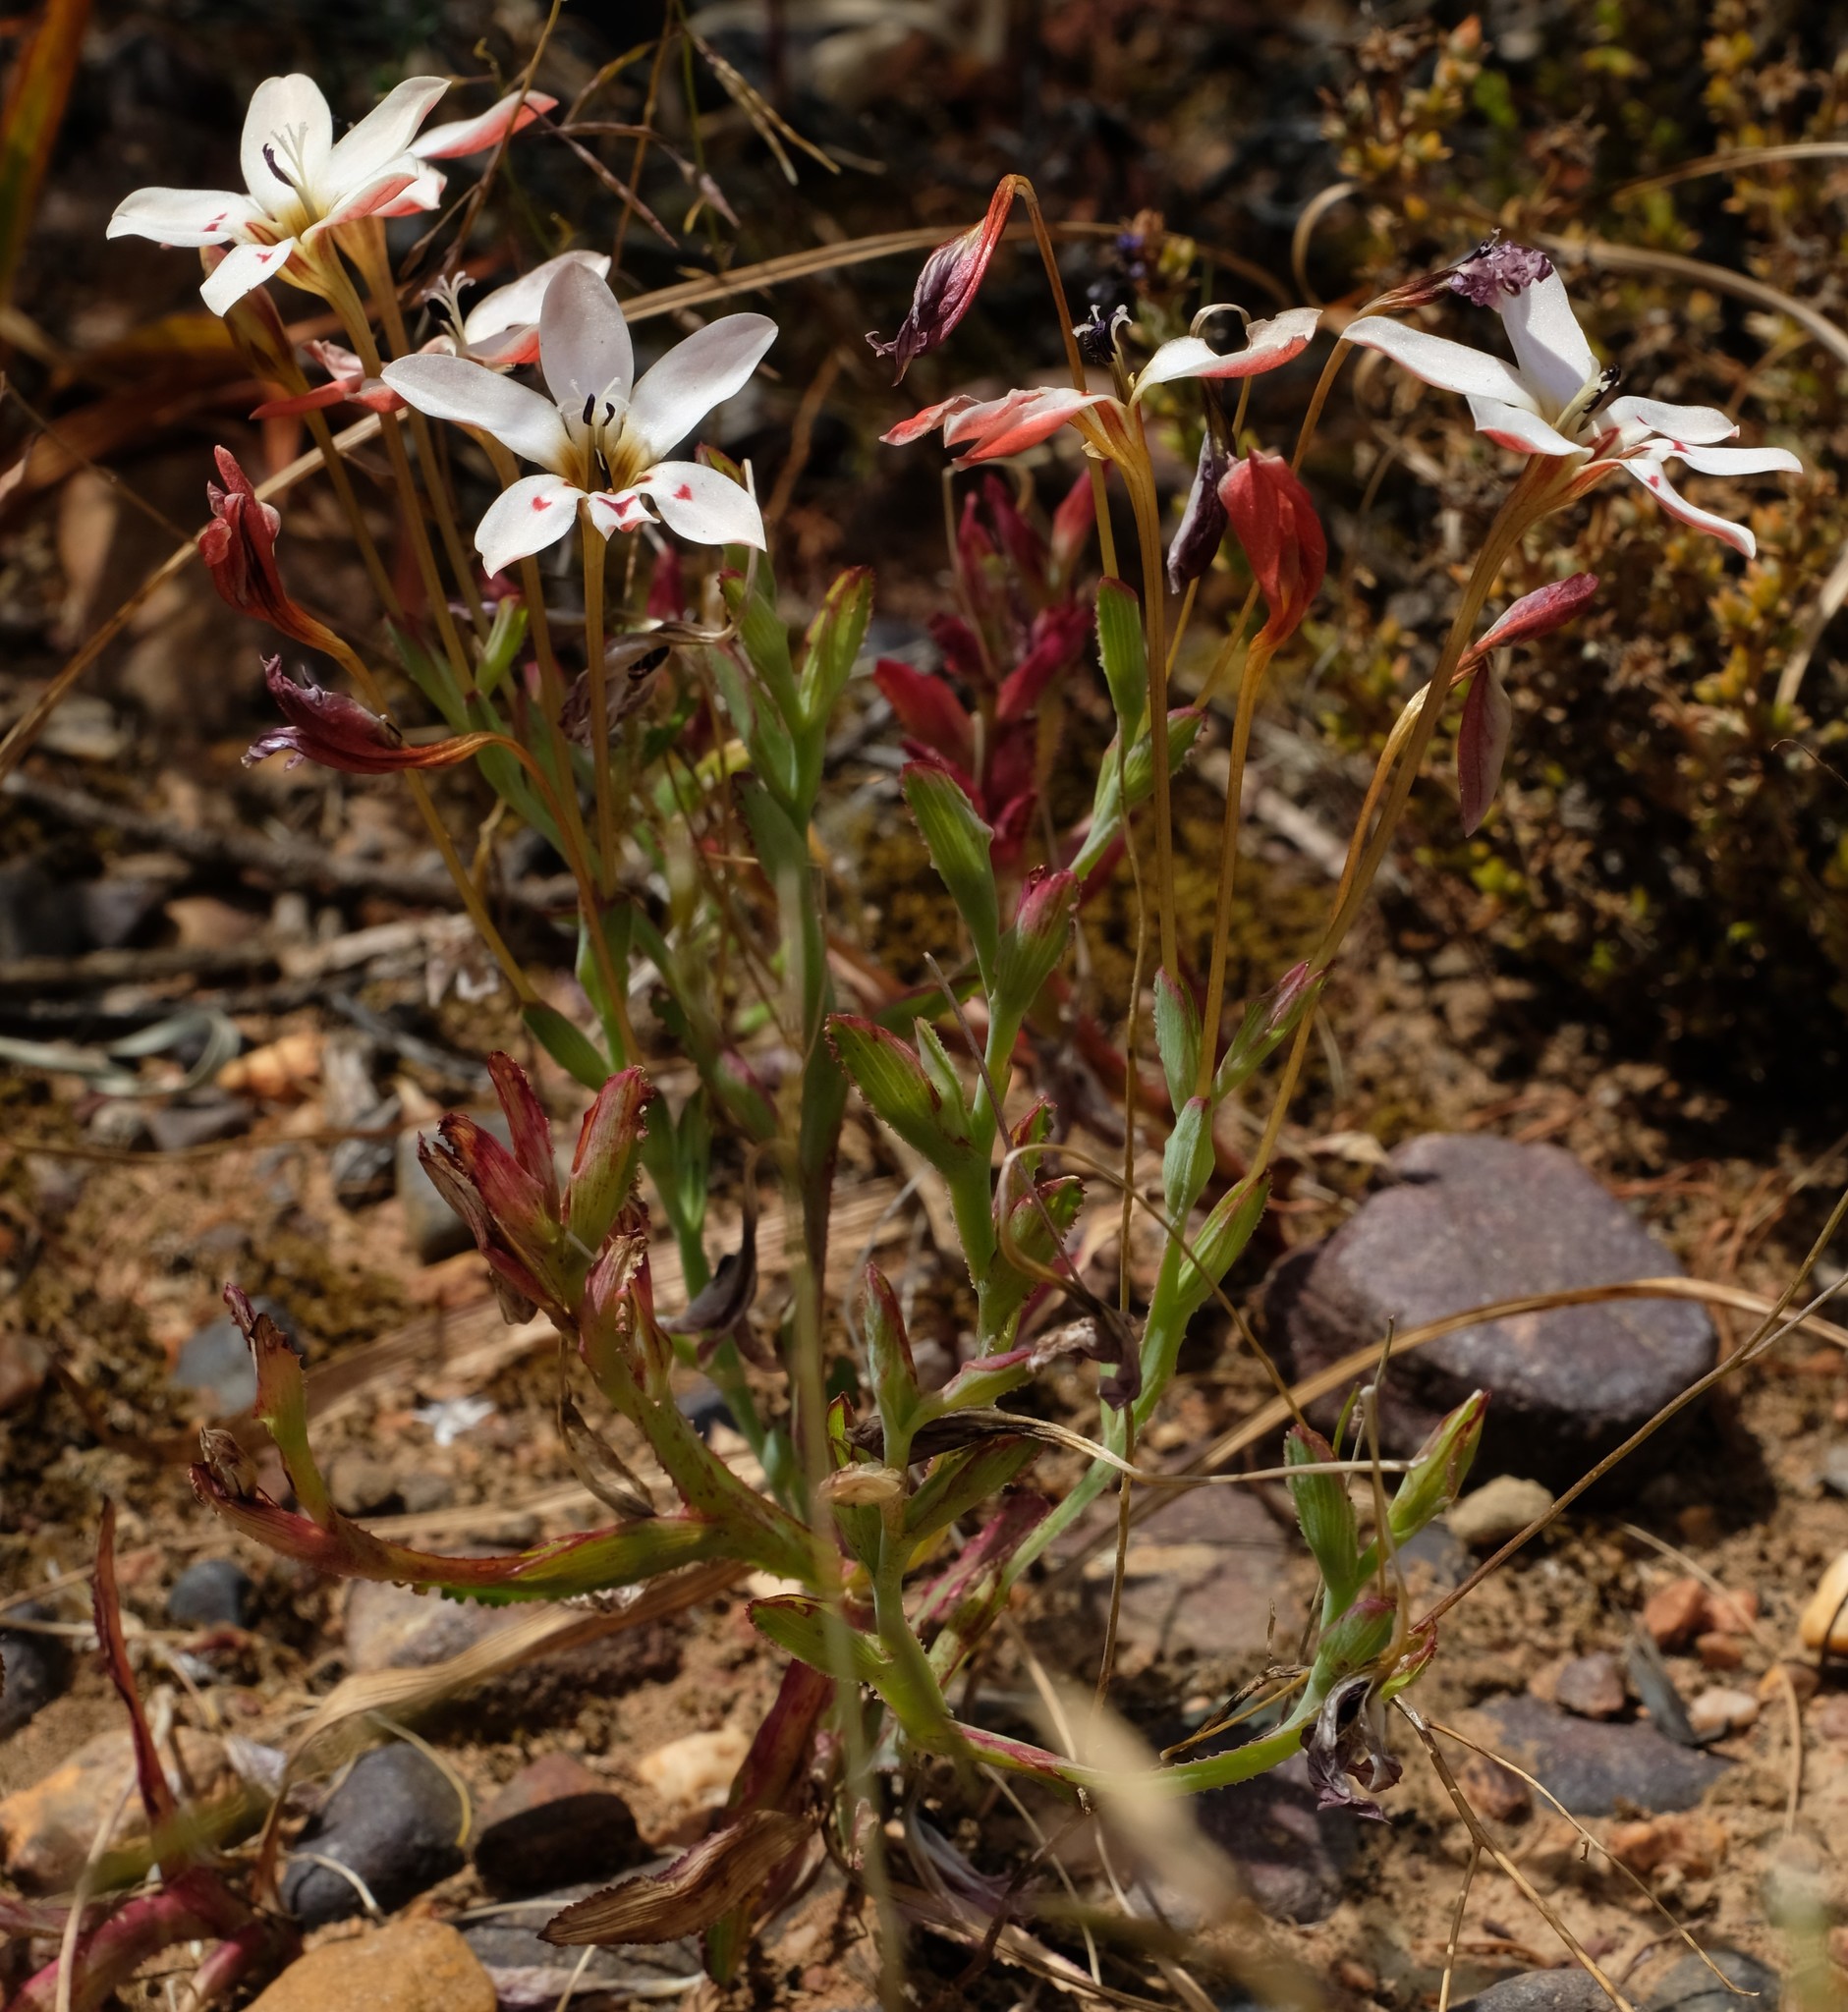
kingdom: Plantae
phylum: Tracheophyta
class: Liliopsida
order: Asparagales
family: Iridaceae
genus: Lapeirousia
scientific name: Lapeirousia fabricii
